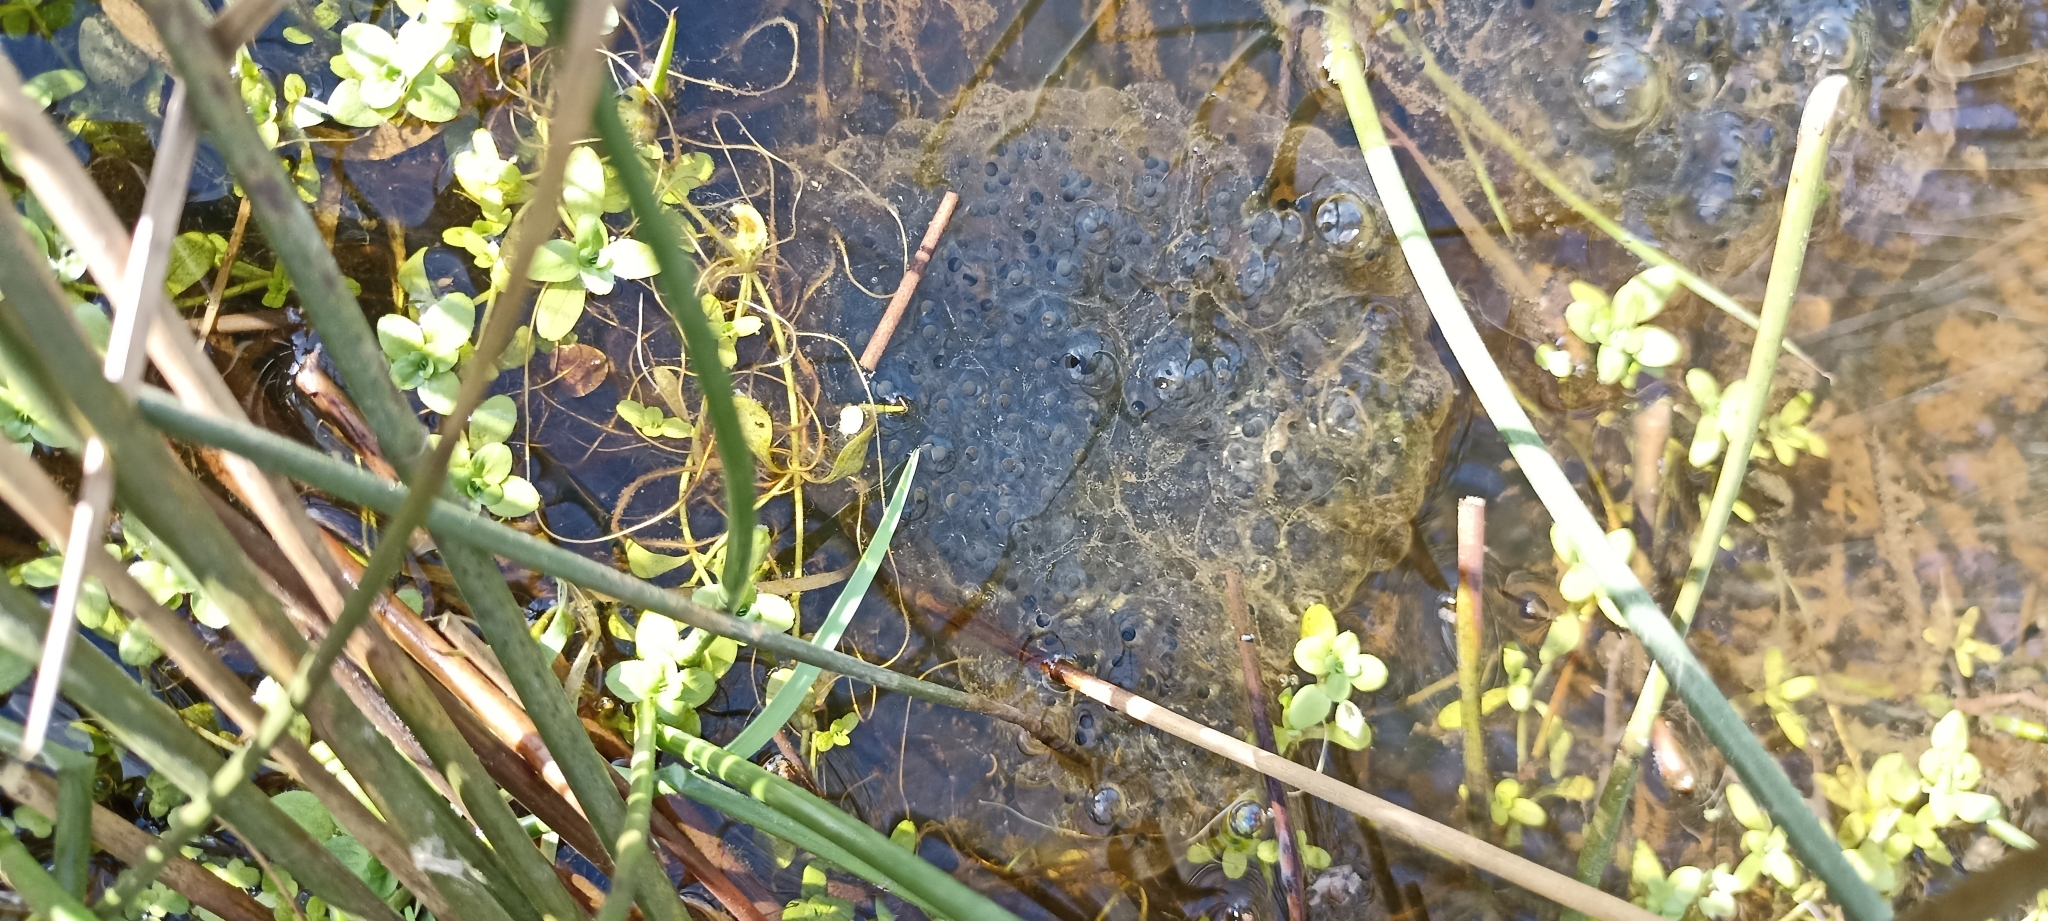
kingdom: Animalia
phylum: Chordata
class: Amphibia
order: Anura
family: Ranidae
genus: Rana
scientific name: Rana dalmatina
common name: Agile frog
